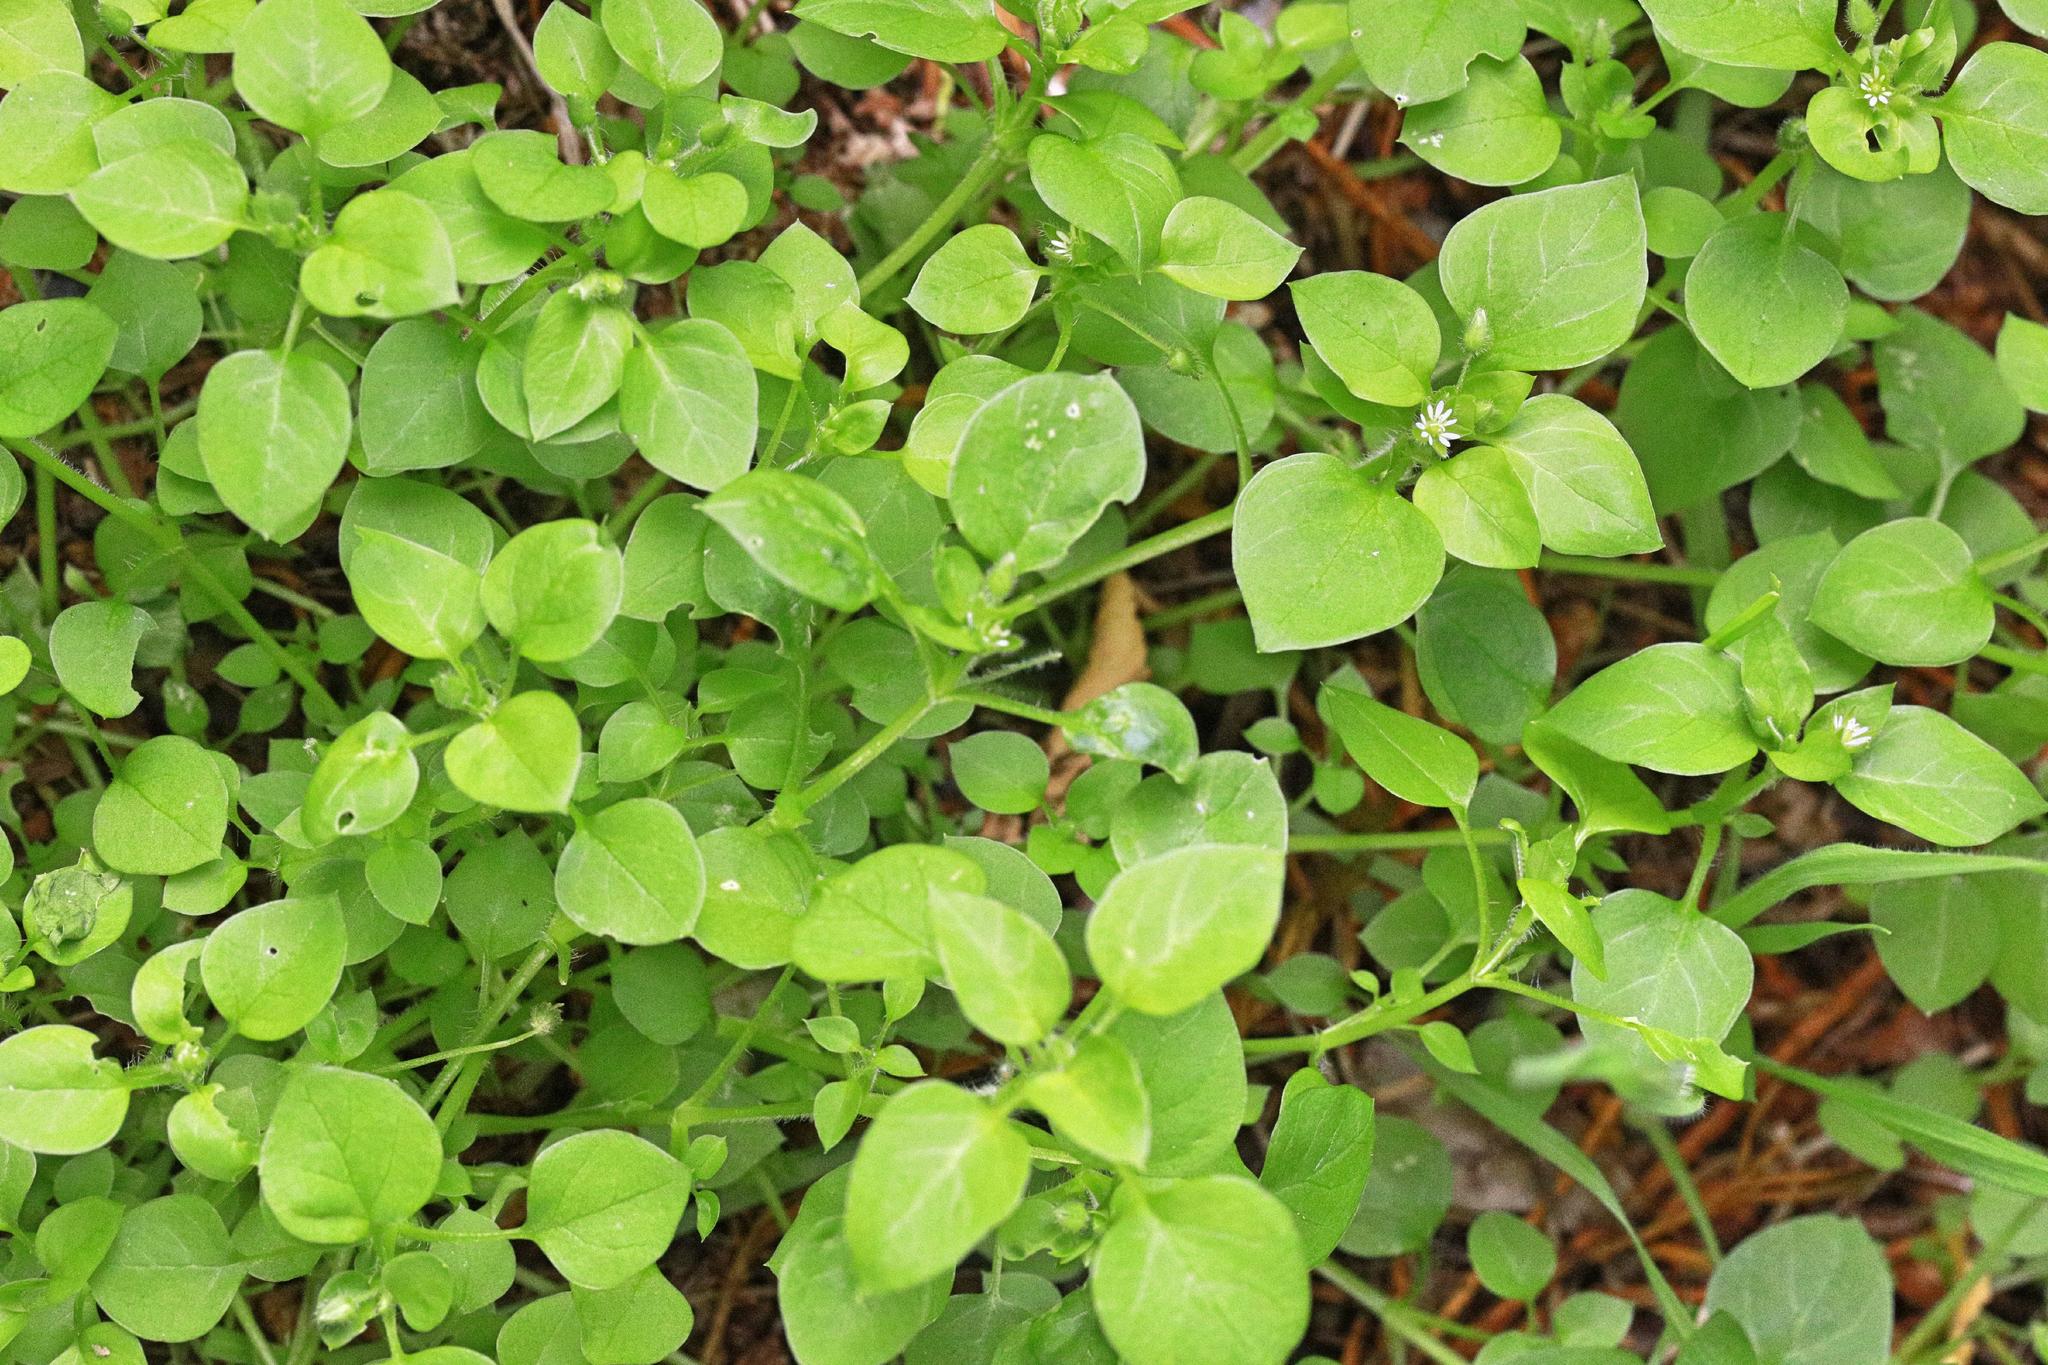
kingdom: Plantae
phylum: Tracheophyta
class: Magnoliopsida
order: Caryophyllales
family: Caryophyllaceae
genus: Stellaria
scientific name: Stellaria media
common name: Common chickweed
